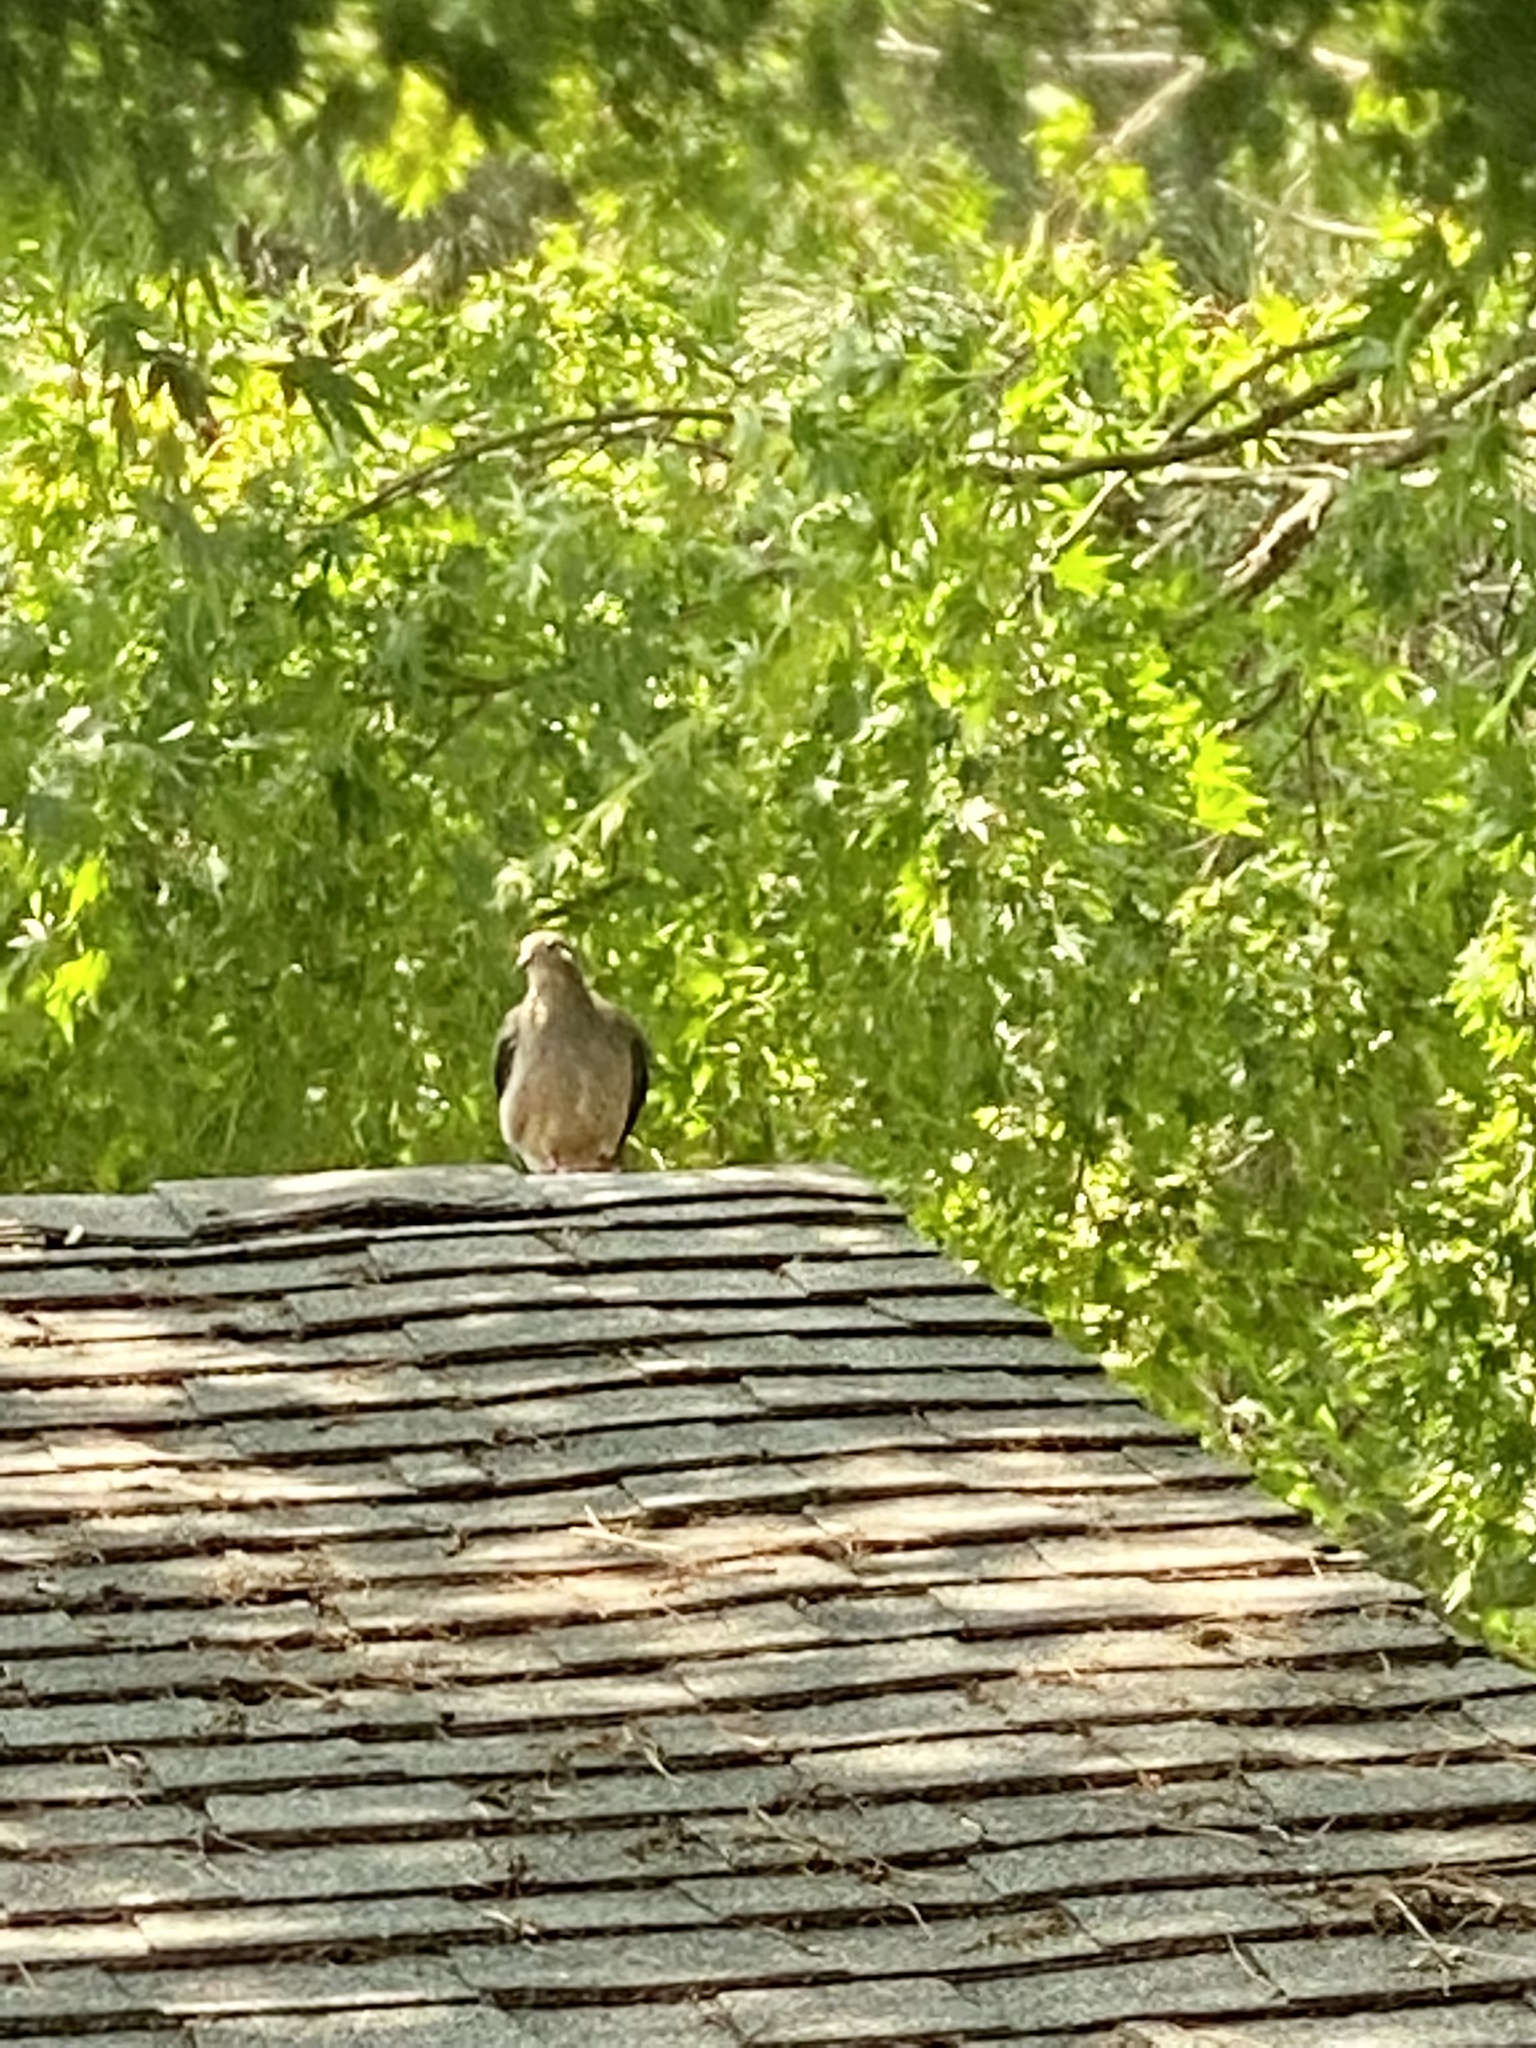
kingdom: Animalia
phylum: Chordata
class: Aves
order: Columbiformes
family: Columbidae
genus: Zenaida
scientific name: Zenaida macroura
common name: Mourning dove
